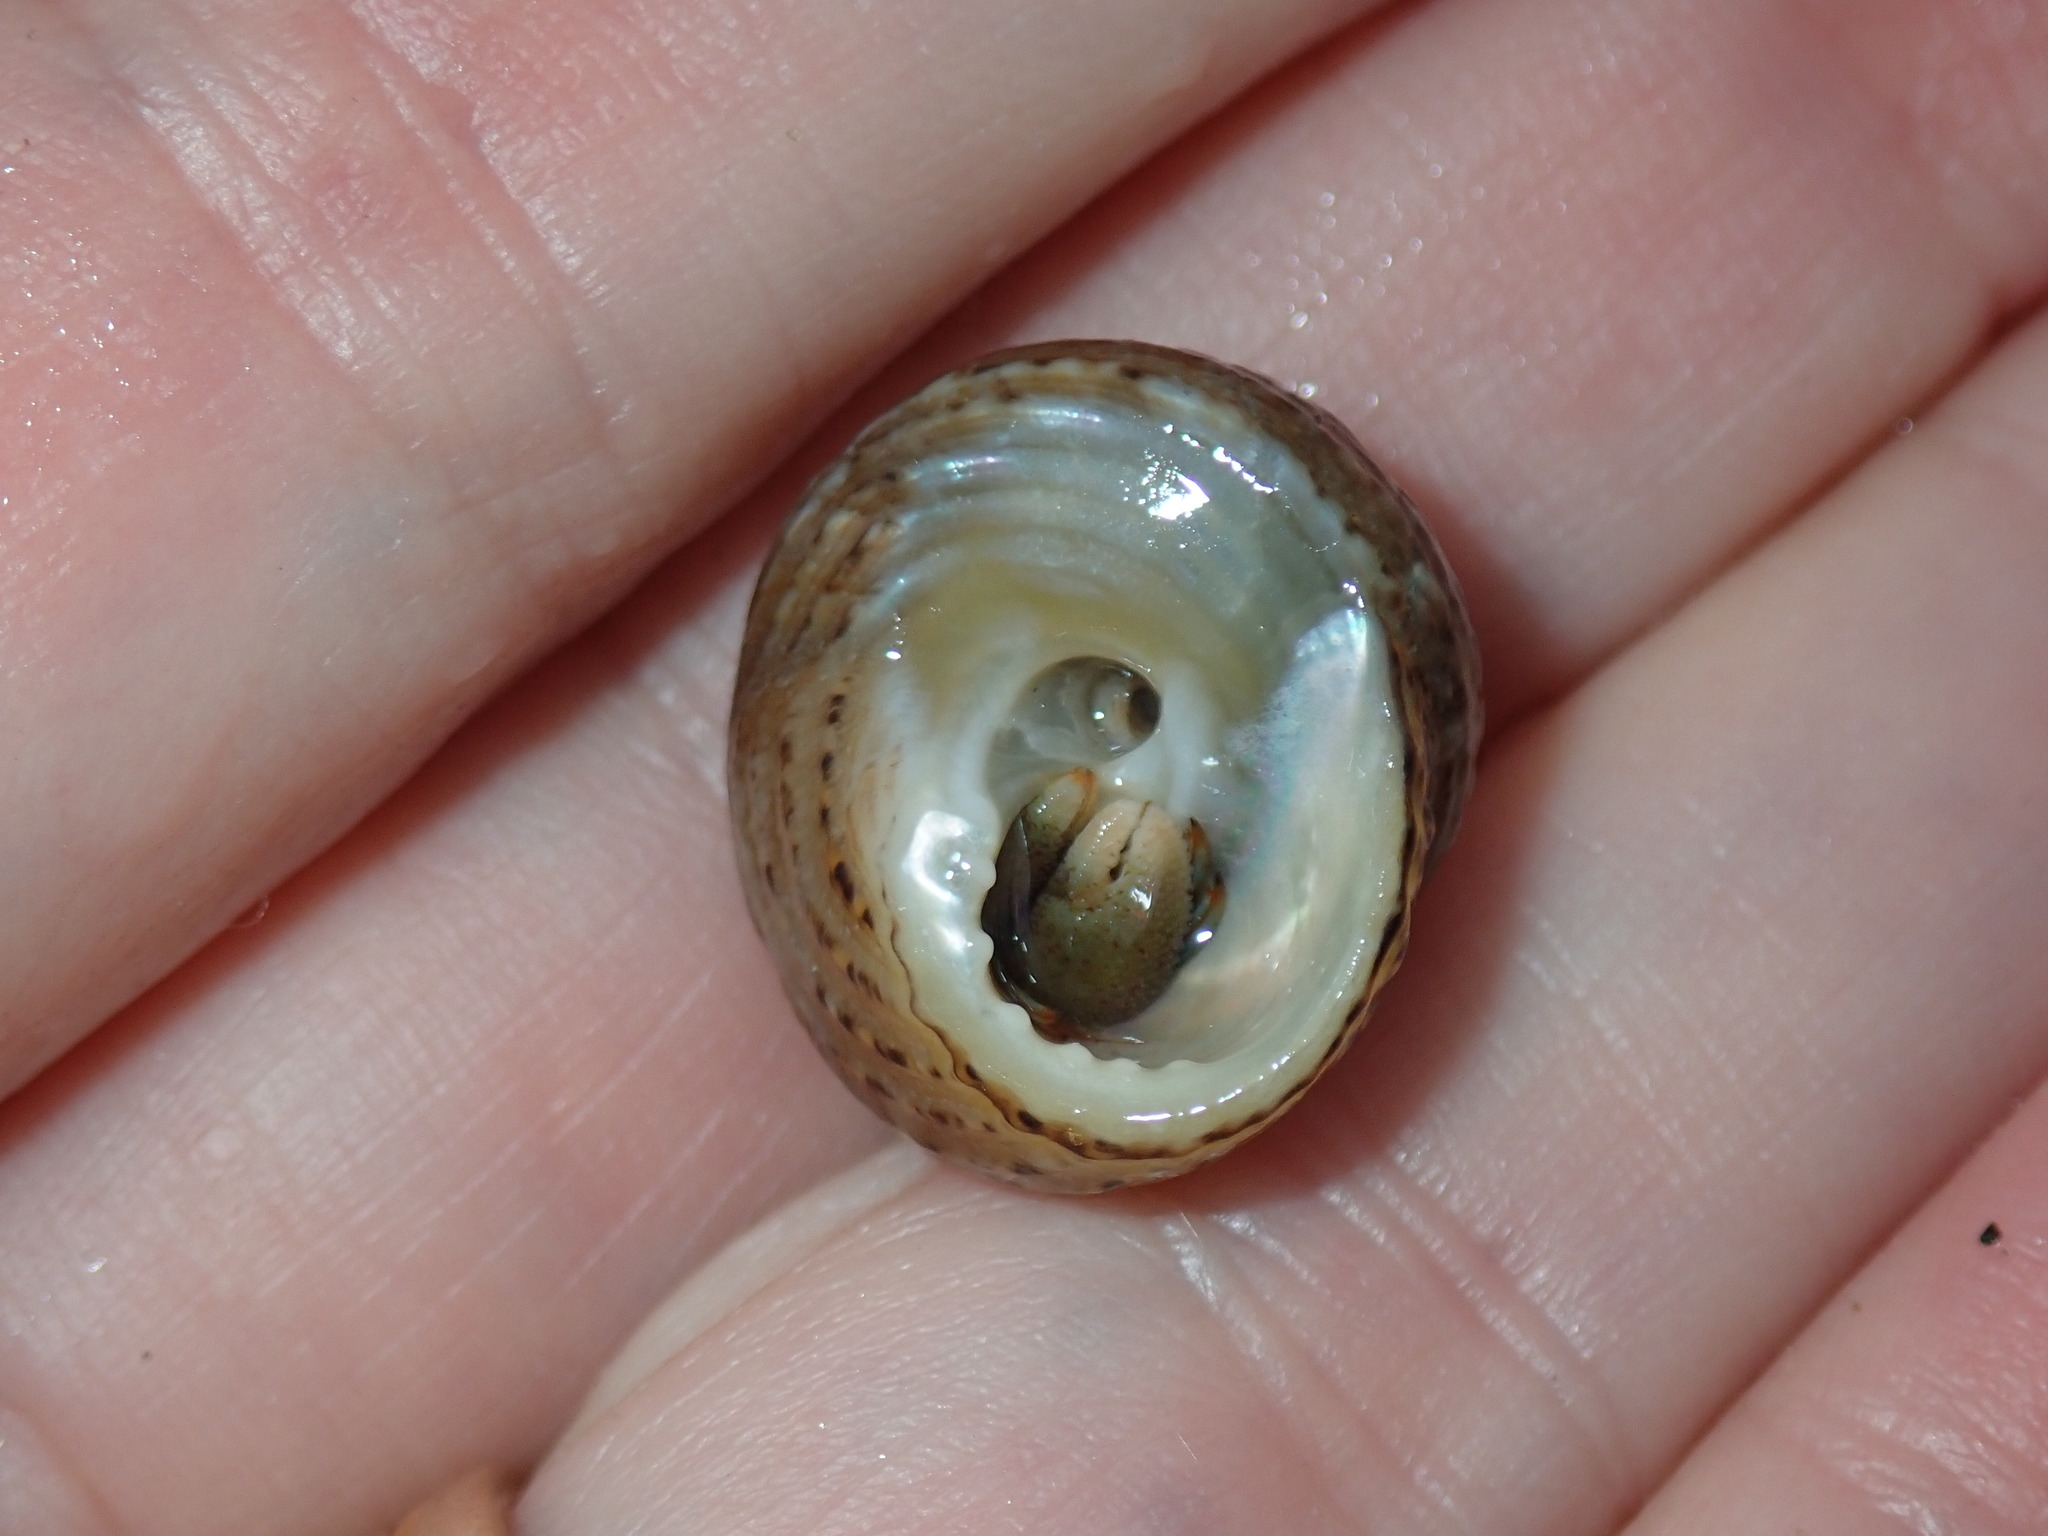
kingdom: Animalia
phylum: Mollusca
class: Gastropoda
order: Trochida
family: Tegulidae
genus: Tegula
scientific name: Tegula eiseni
